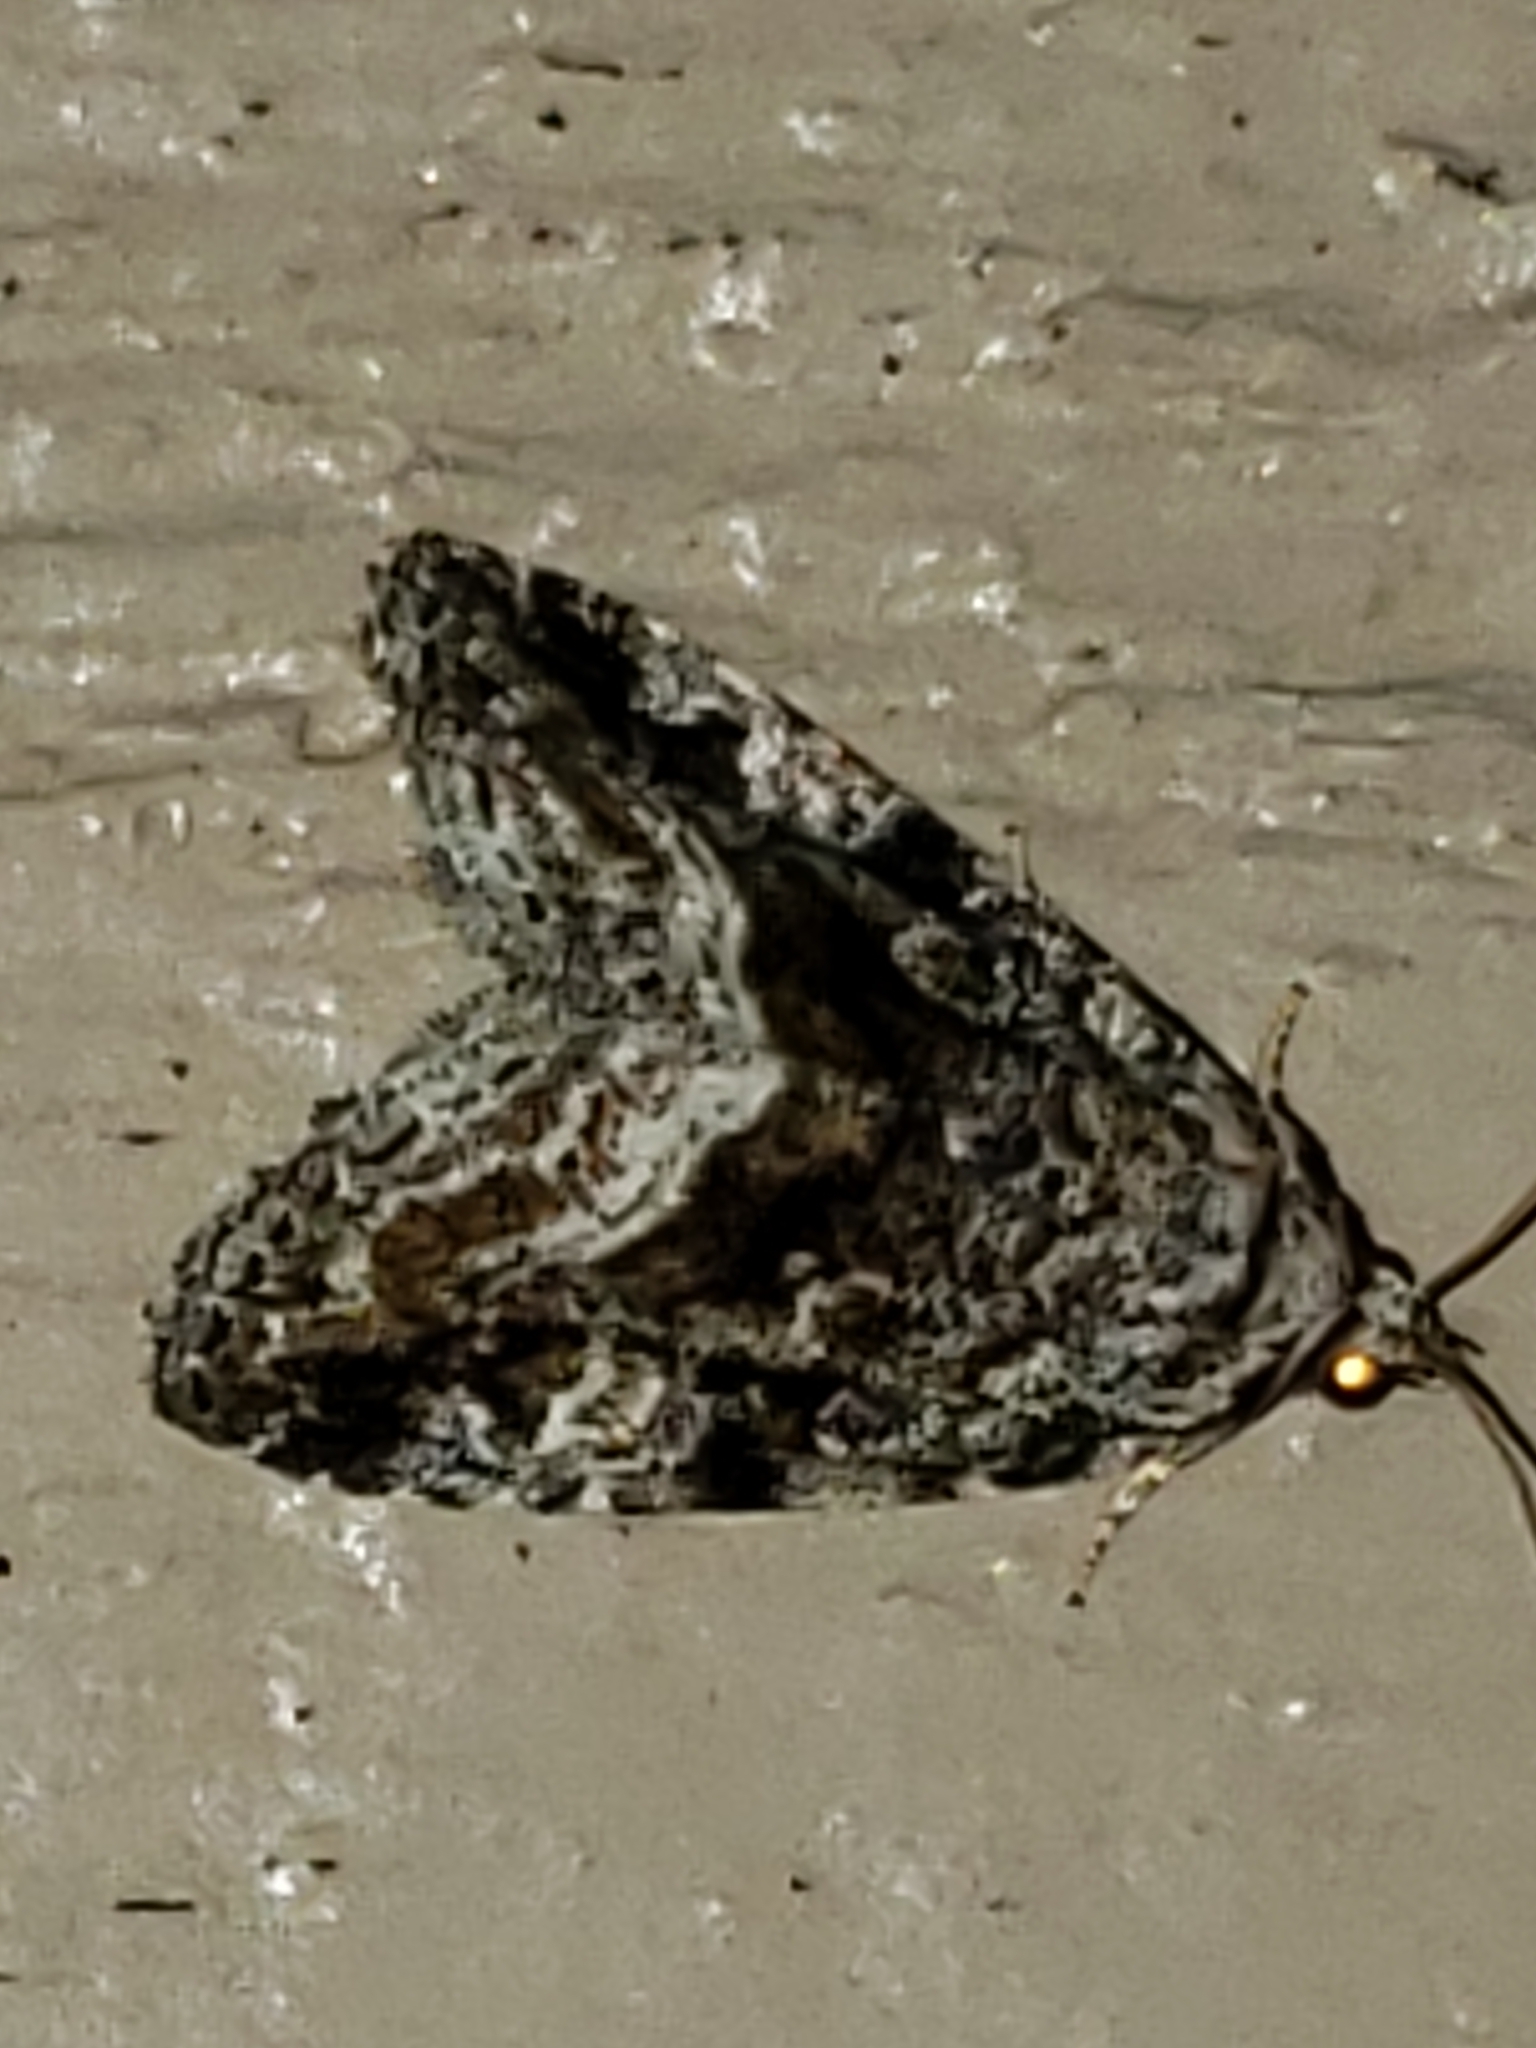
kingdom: Animalia
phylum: Arthropoda
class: Insecta
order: Lepidoptera
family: Noctuidae
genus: Protodeltote
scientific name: Protodeltote muscosula
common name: Large mossy glyph
